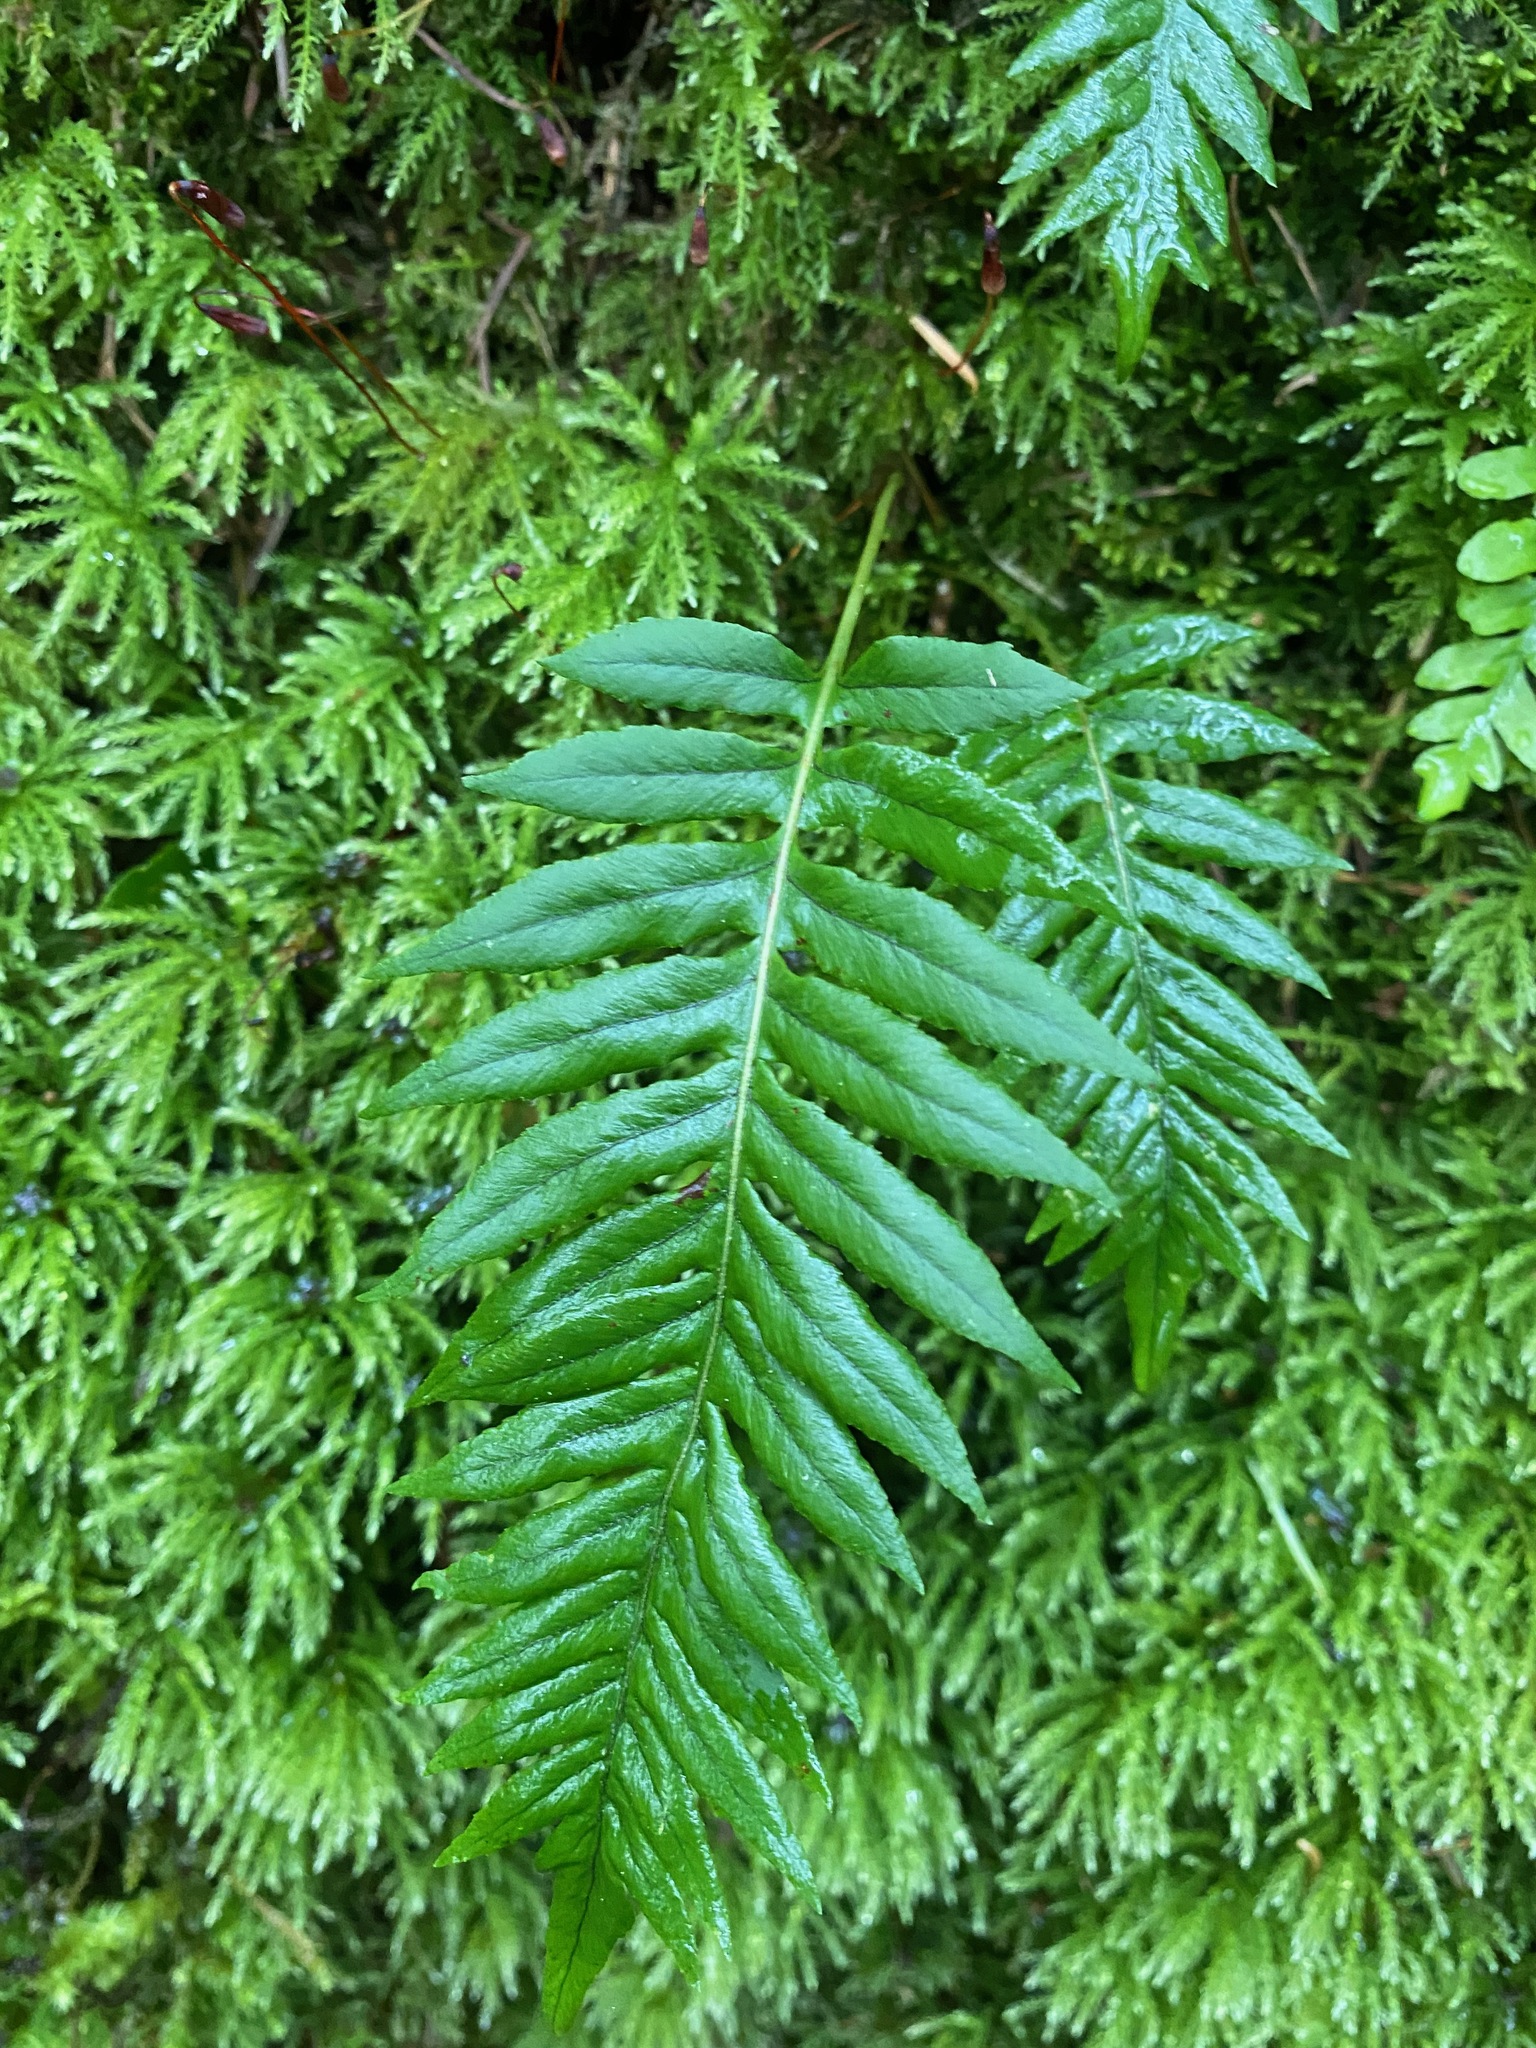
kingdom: Plantae
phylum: Tracheophyta
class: Polypodiopsida
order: Polypodiales
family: Polypodiaceae
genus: Polypodium
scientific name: Polypodium glycyrrhiza
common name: Licorice fern
